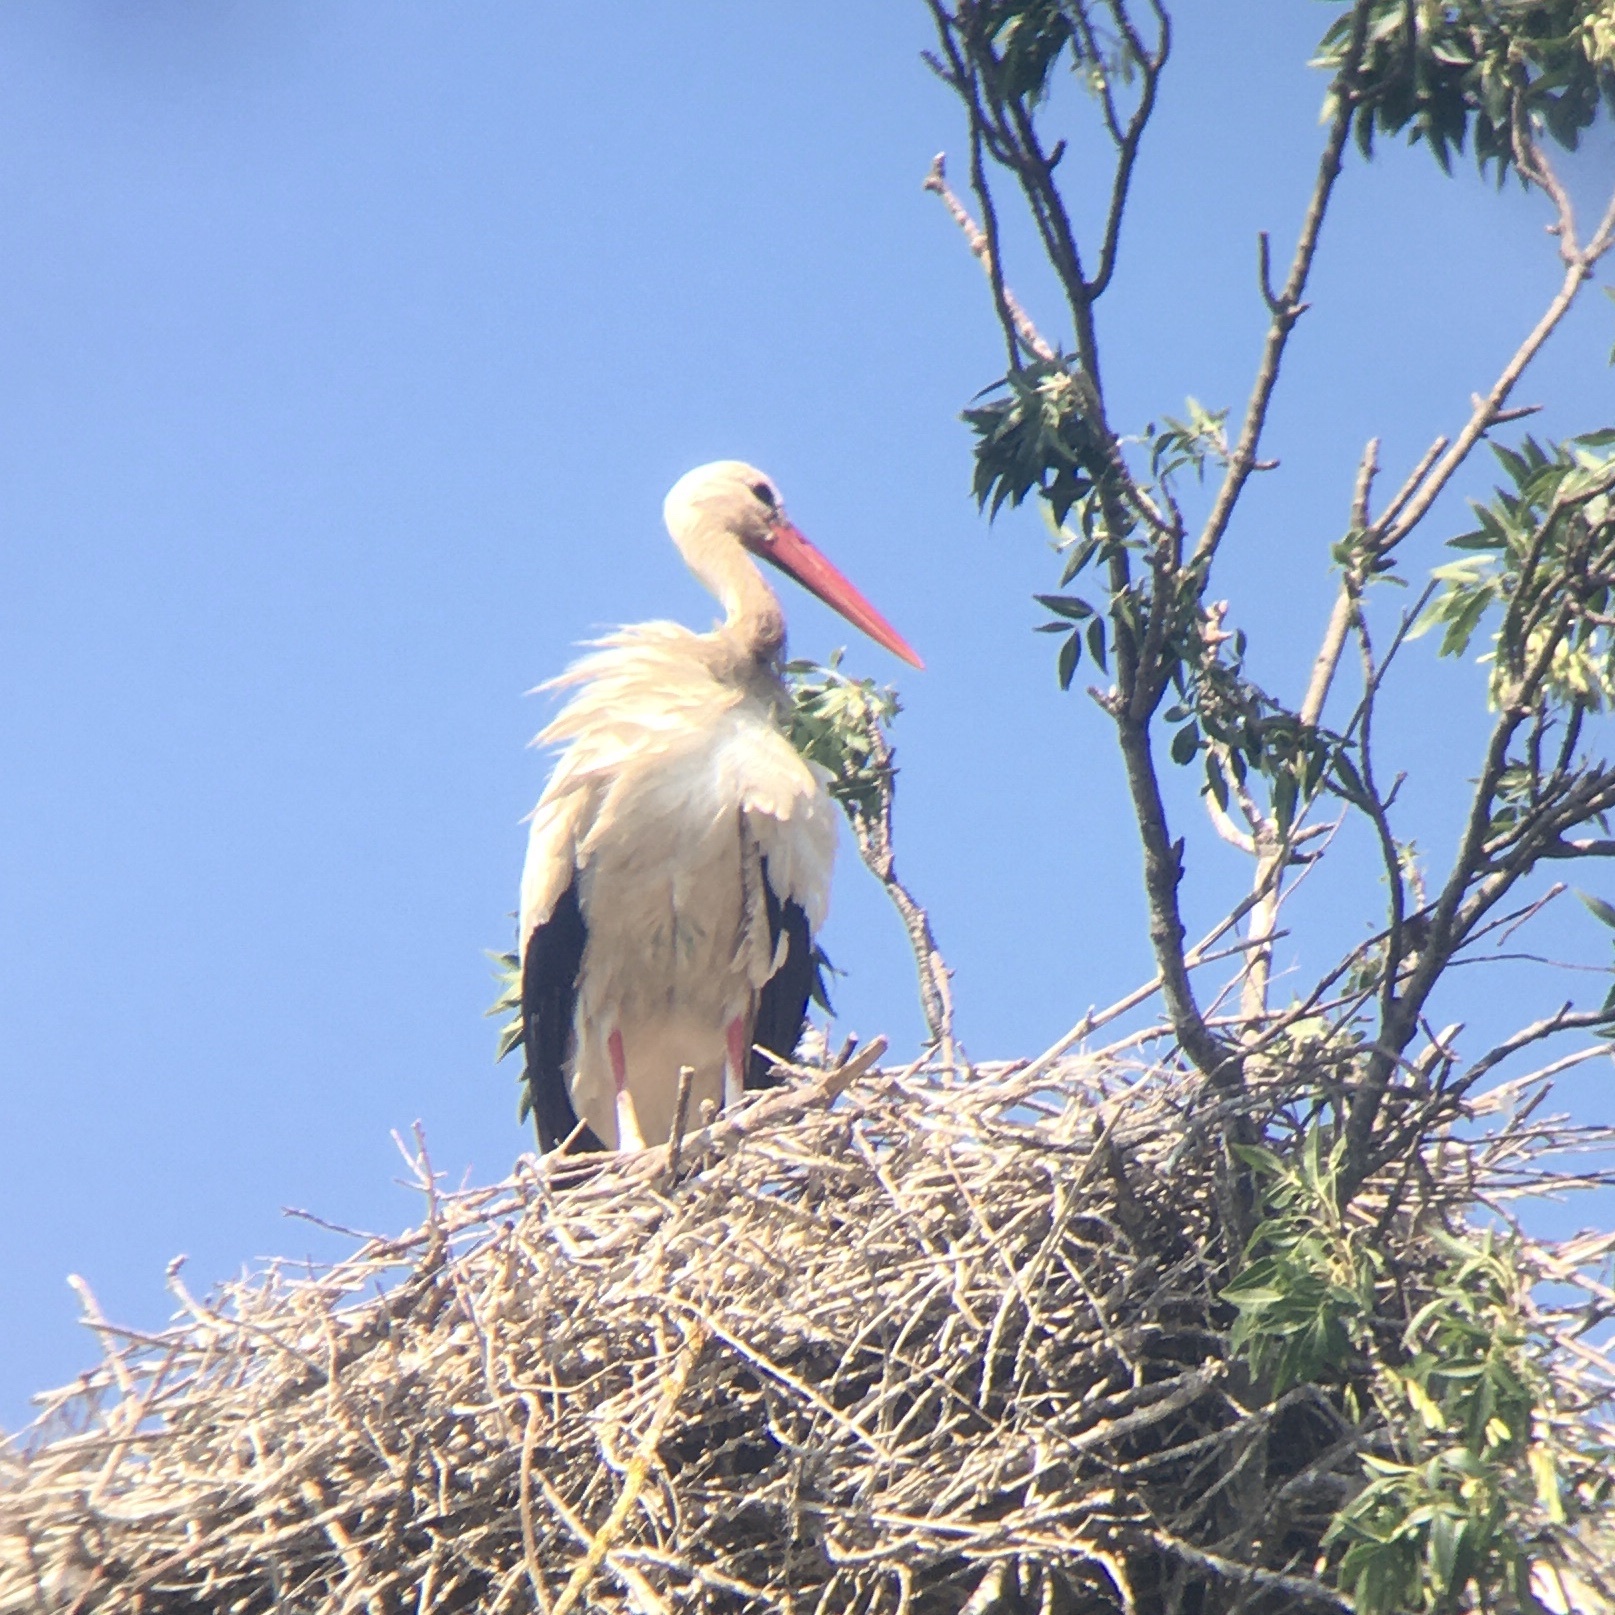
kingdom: Animalia
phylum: Chordata
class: Aves
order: Ciconiiformes
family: Ciconiidae
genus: Ciconia
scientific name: Ciconia ciconia
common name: White stork
